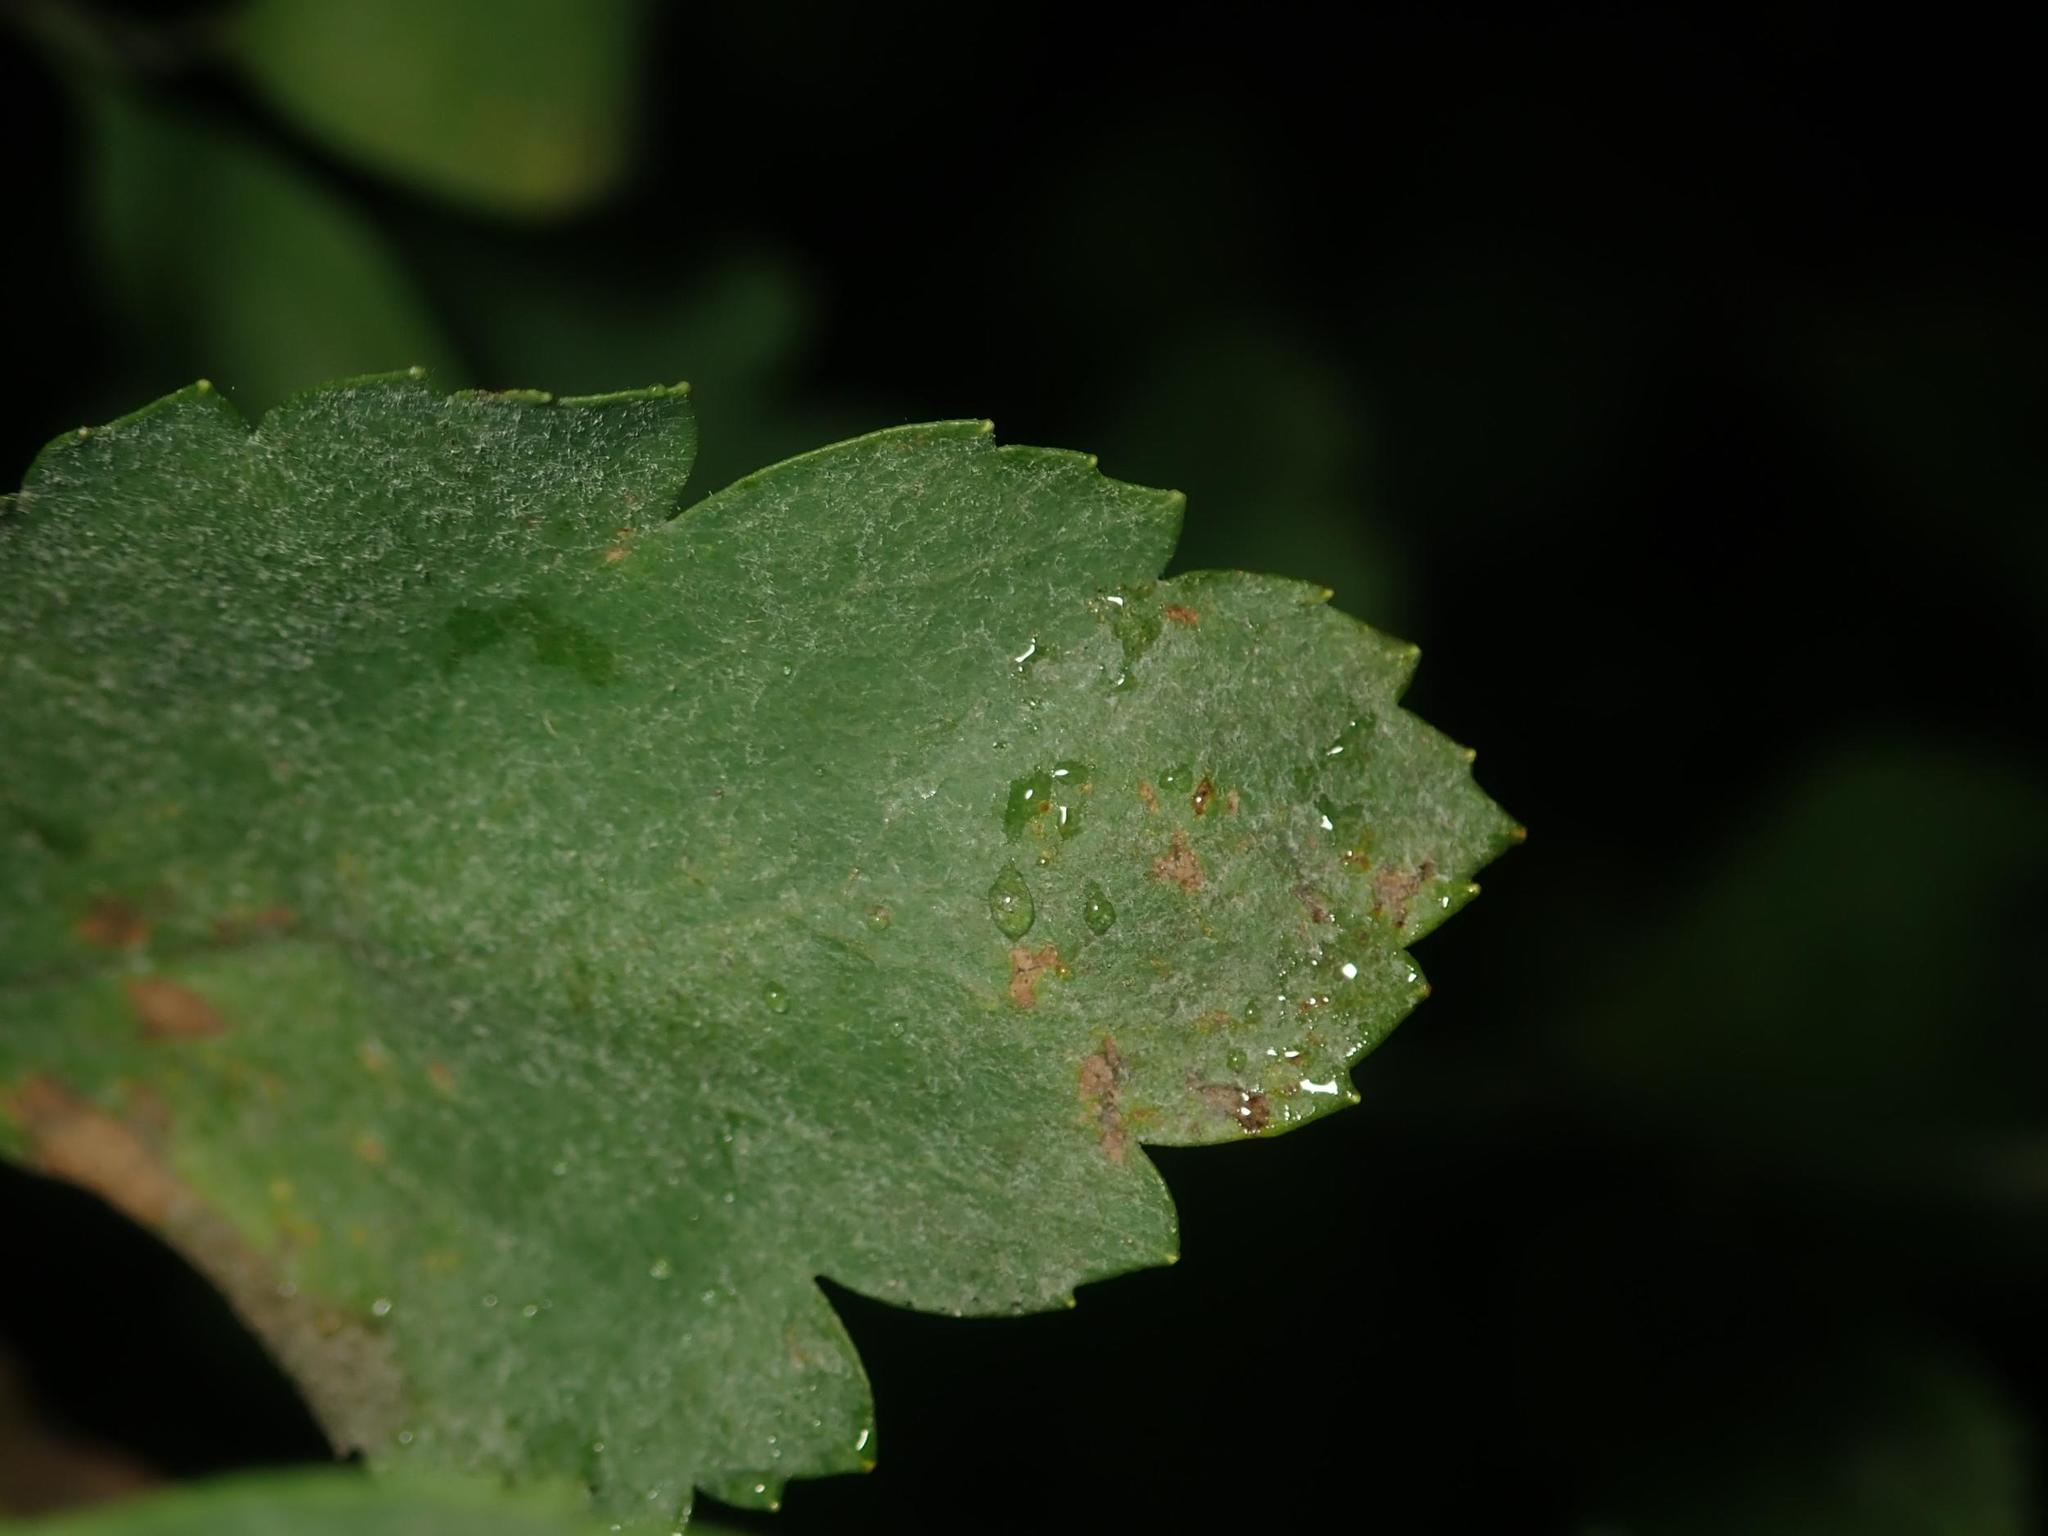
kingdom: Fungi
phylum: Ascomycota
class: Leotiomycetes
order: Helotiales
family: Erysiphaceae
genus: Podosphaera
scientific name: Podosphaera spiraeae
